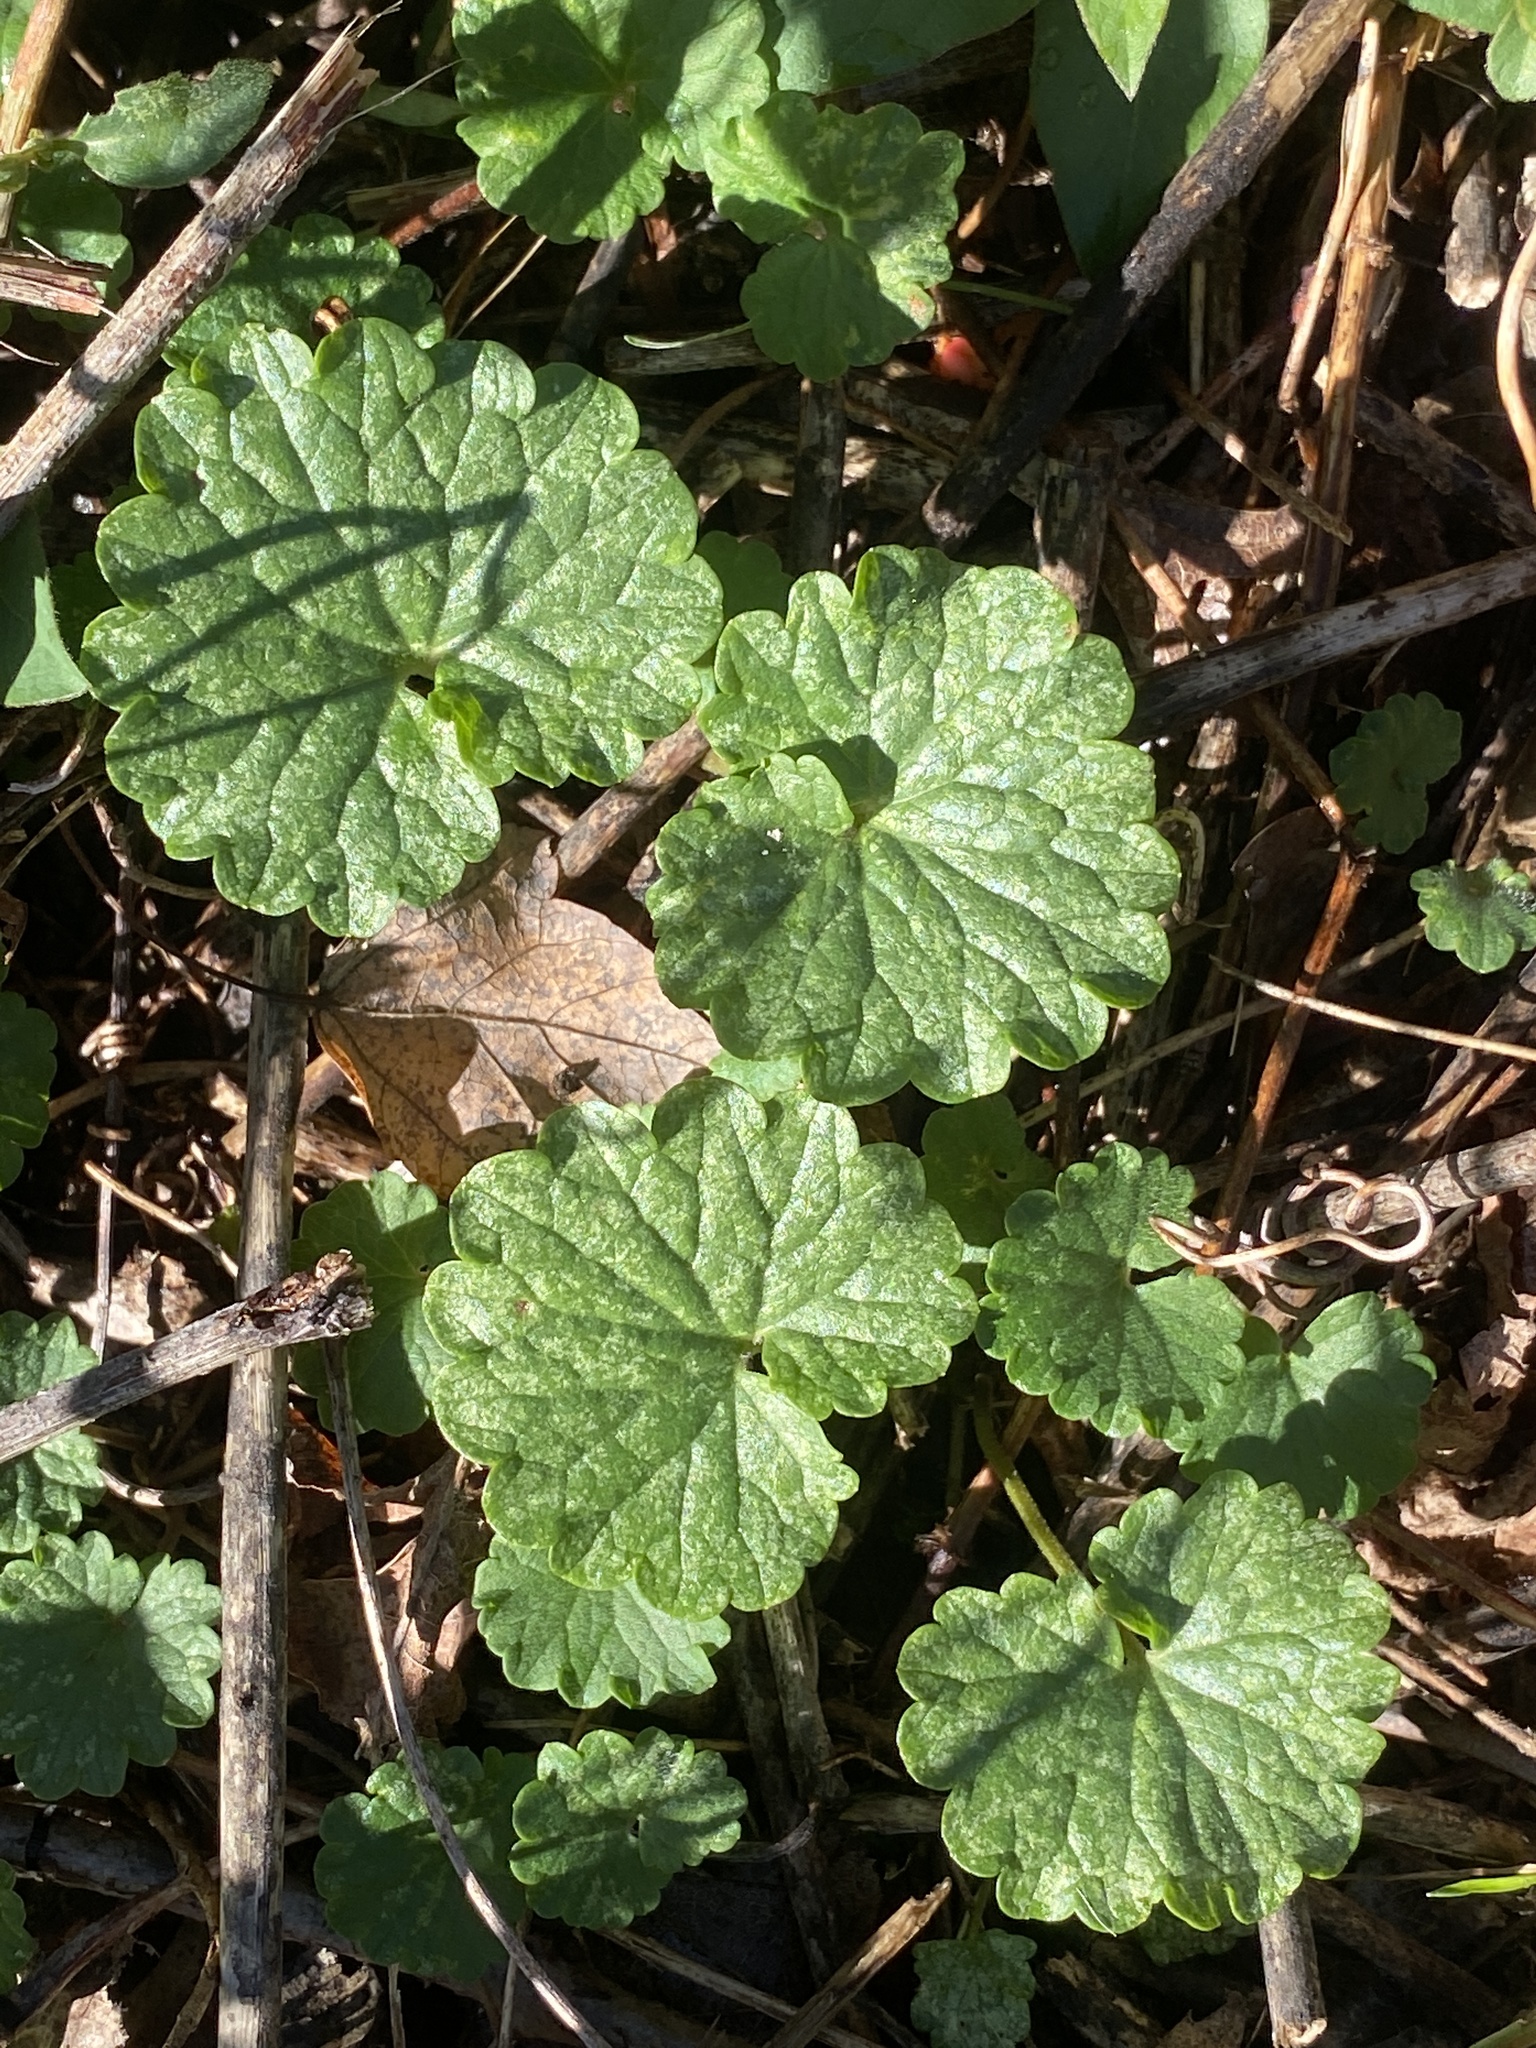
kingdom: Plantae
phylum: Tracheophyta
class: Magnoliopsida
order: Lamiales
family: Lamiaceae
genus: Glechoma
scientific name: Glechoma hederacea
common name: Ground ivy
